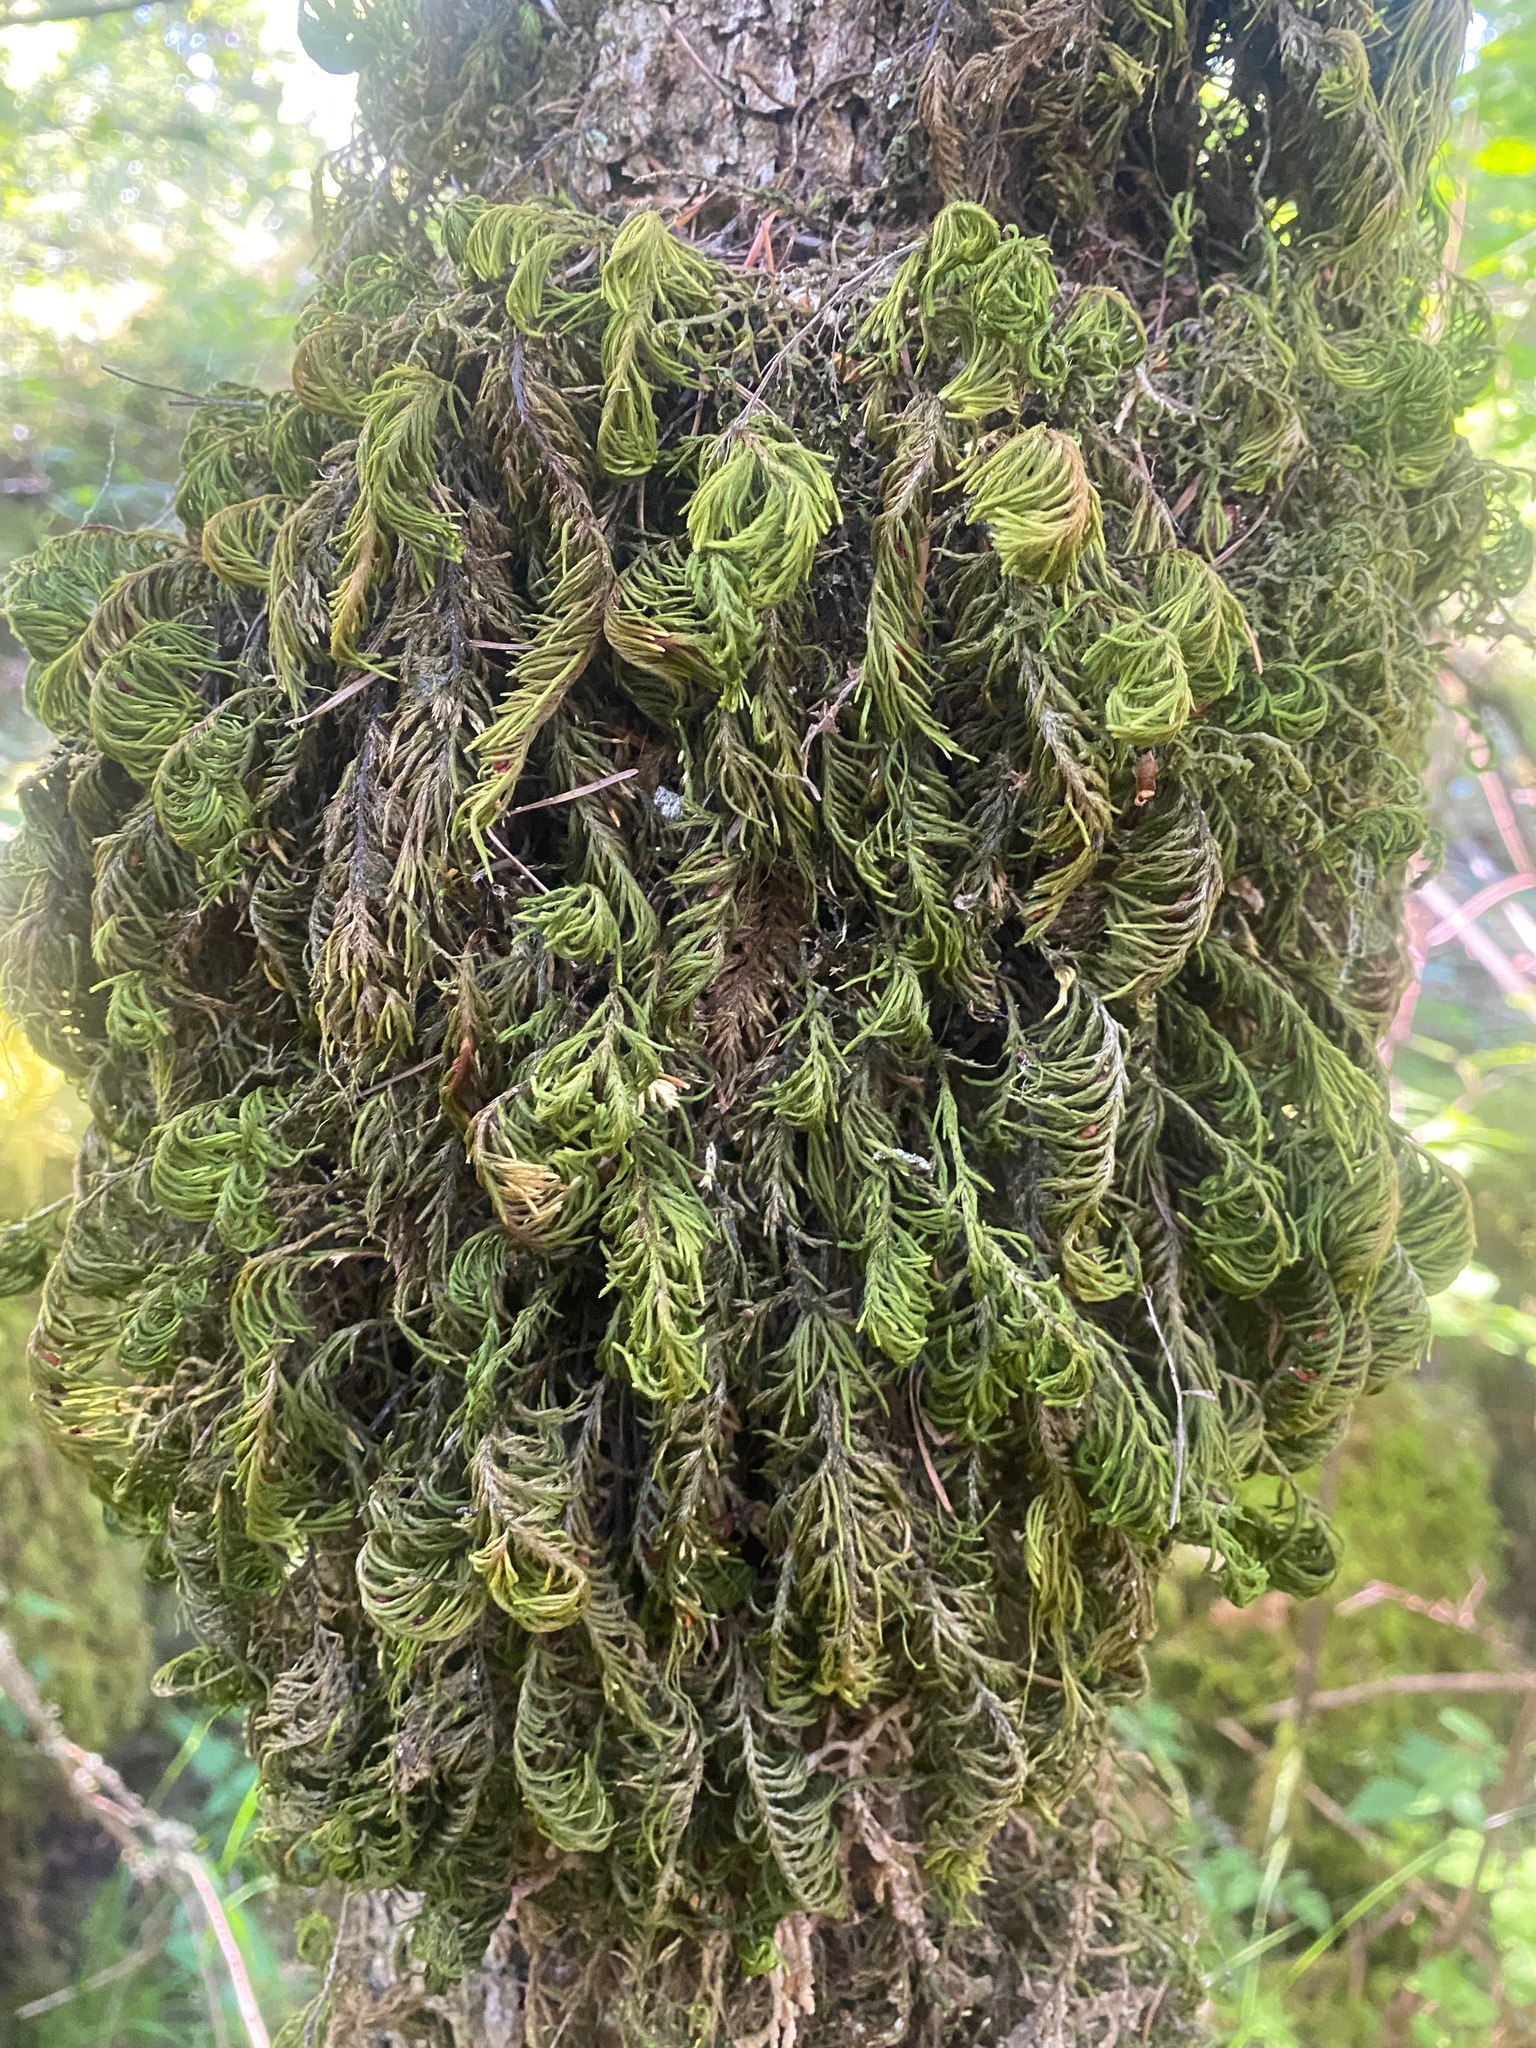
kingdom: Plantae
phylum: Bryophyta
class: Bryopsida
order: Hypnales
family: Cryphaeaceae
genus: Dendroalsia
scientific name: Dendroalsia abietina
